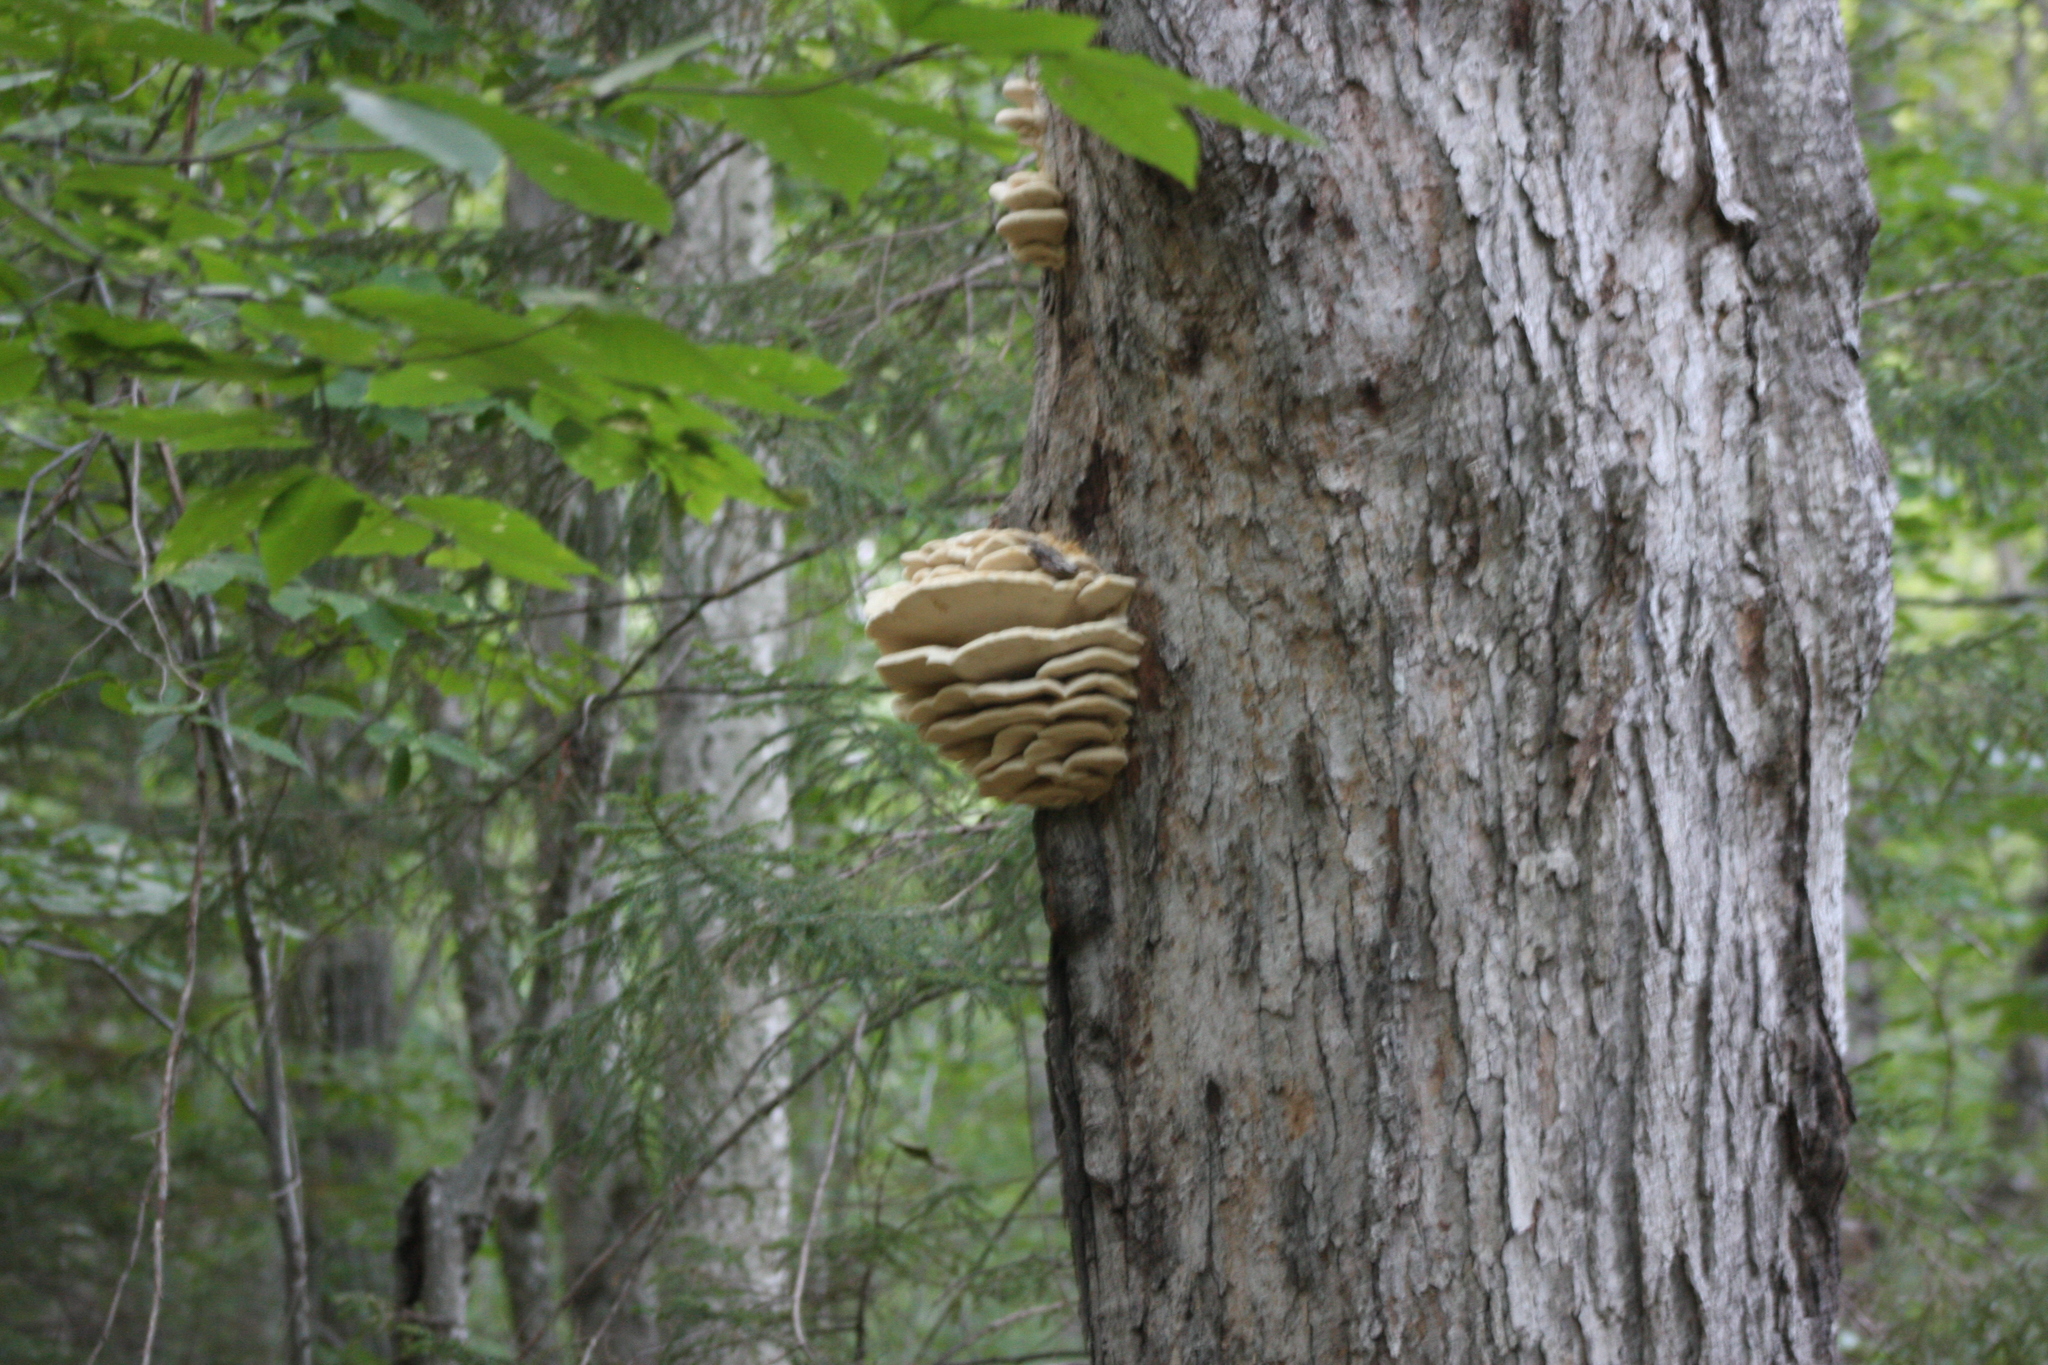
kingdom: Fungi
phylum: Basidiomycota
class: Agaricomycetes
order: Polyporales
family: Meruliaceae
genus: Climacodon
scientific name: Climacodon septentrionalis
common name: Northern tooth
